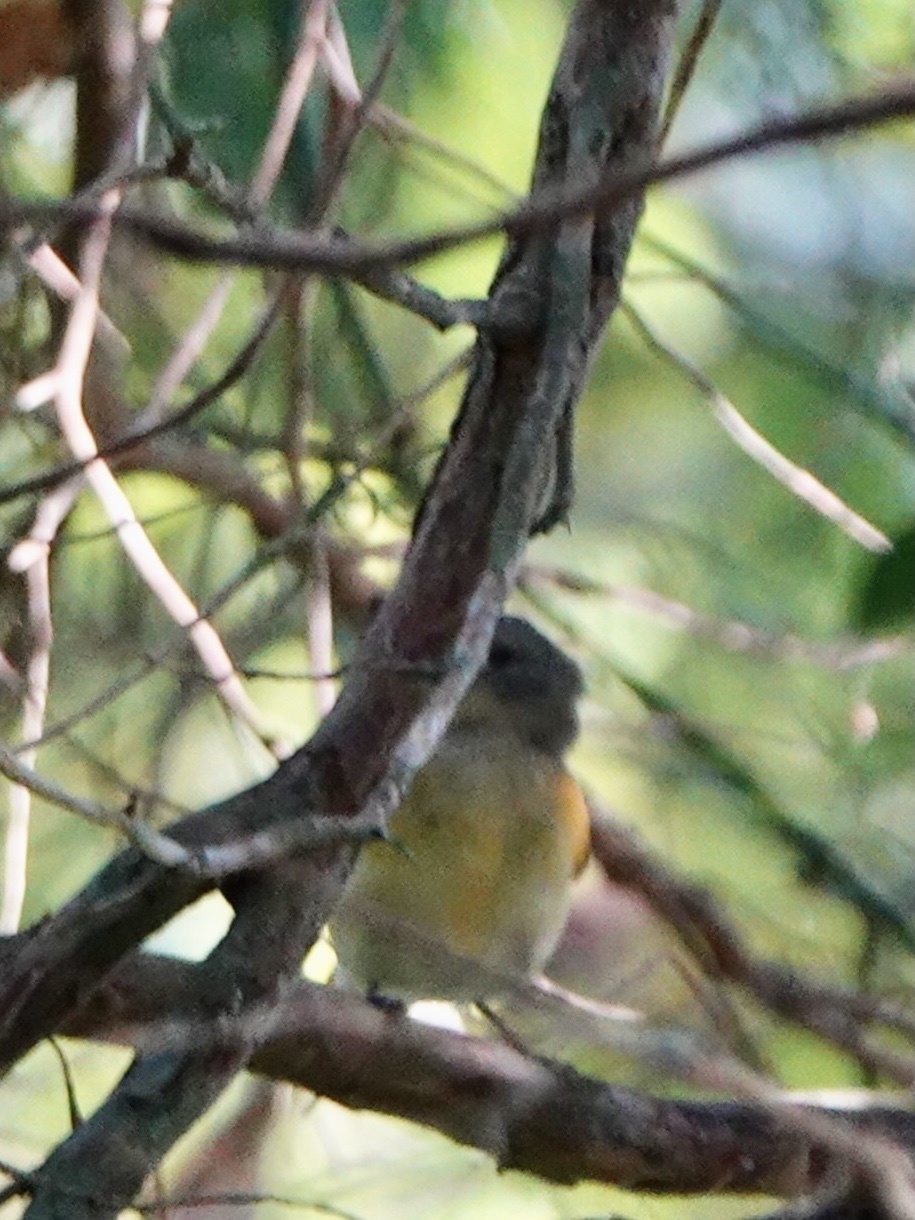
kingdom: Animalia
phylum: Chordata
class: Aves
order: Passeriformes
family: Parulidae
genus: Setophaga
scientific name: Setophaga ruticilla
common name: American redstart
